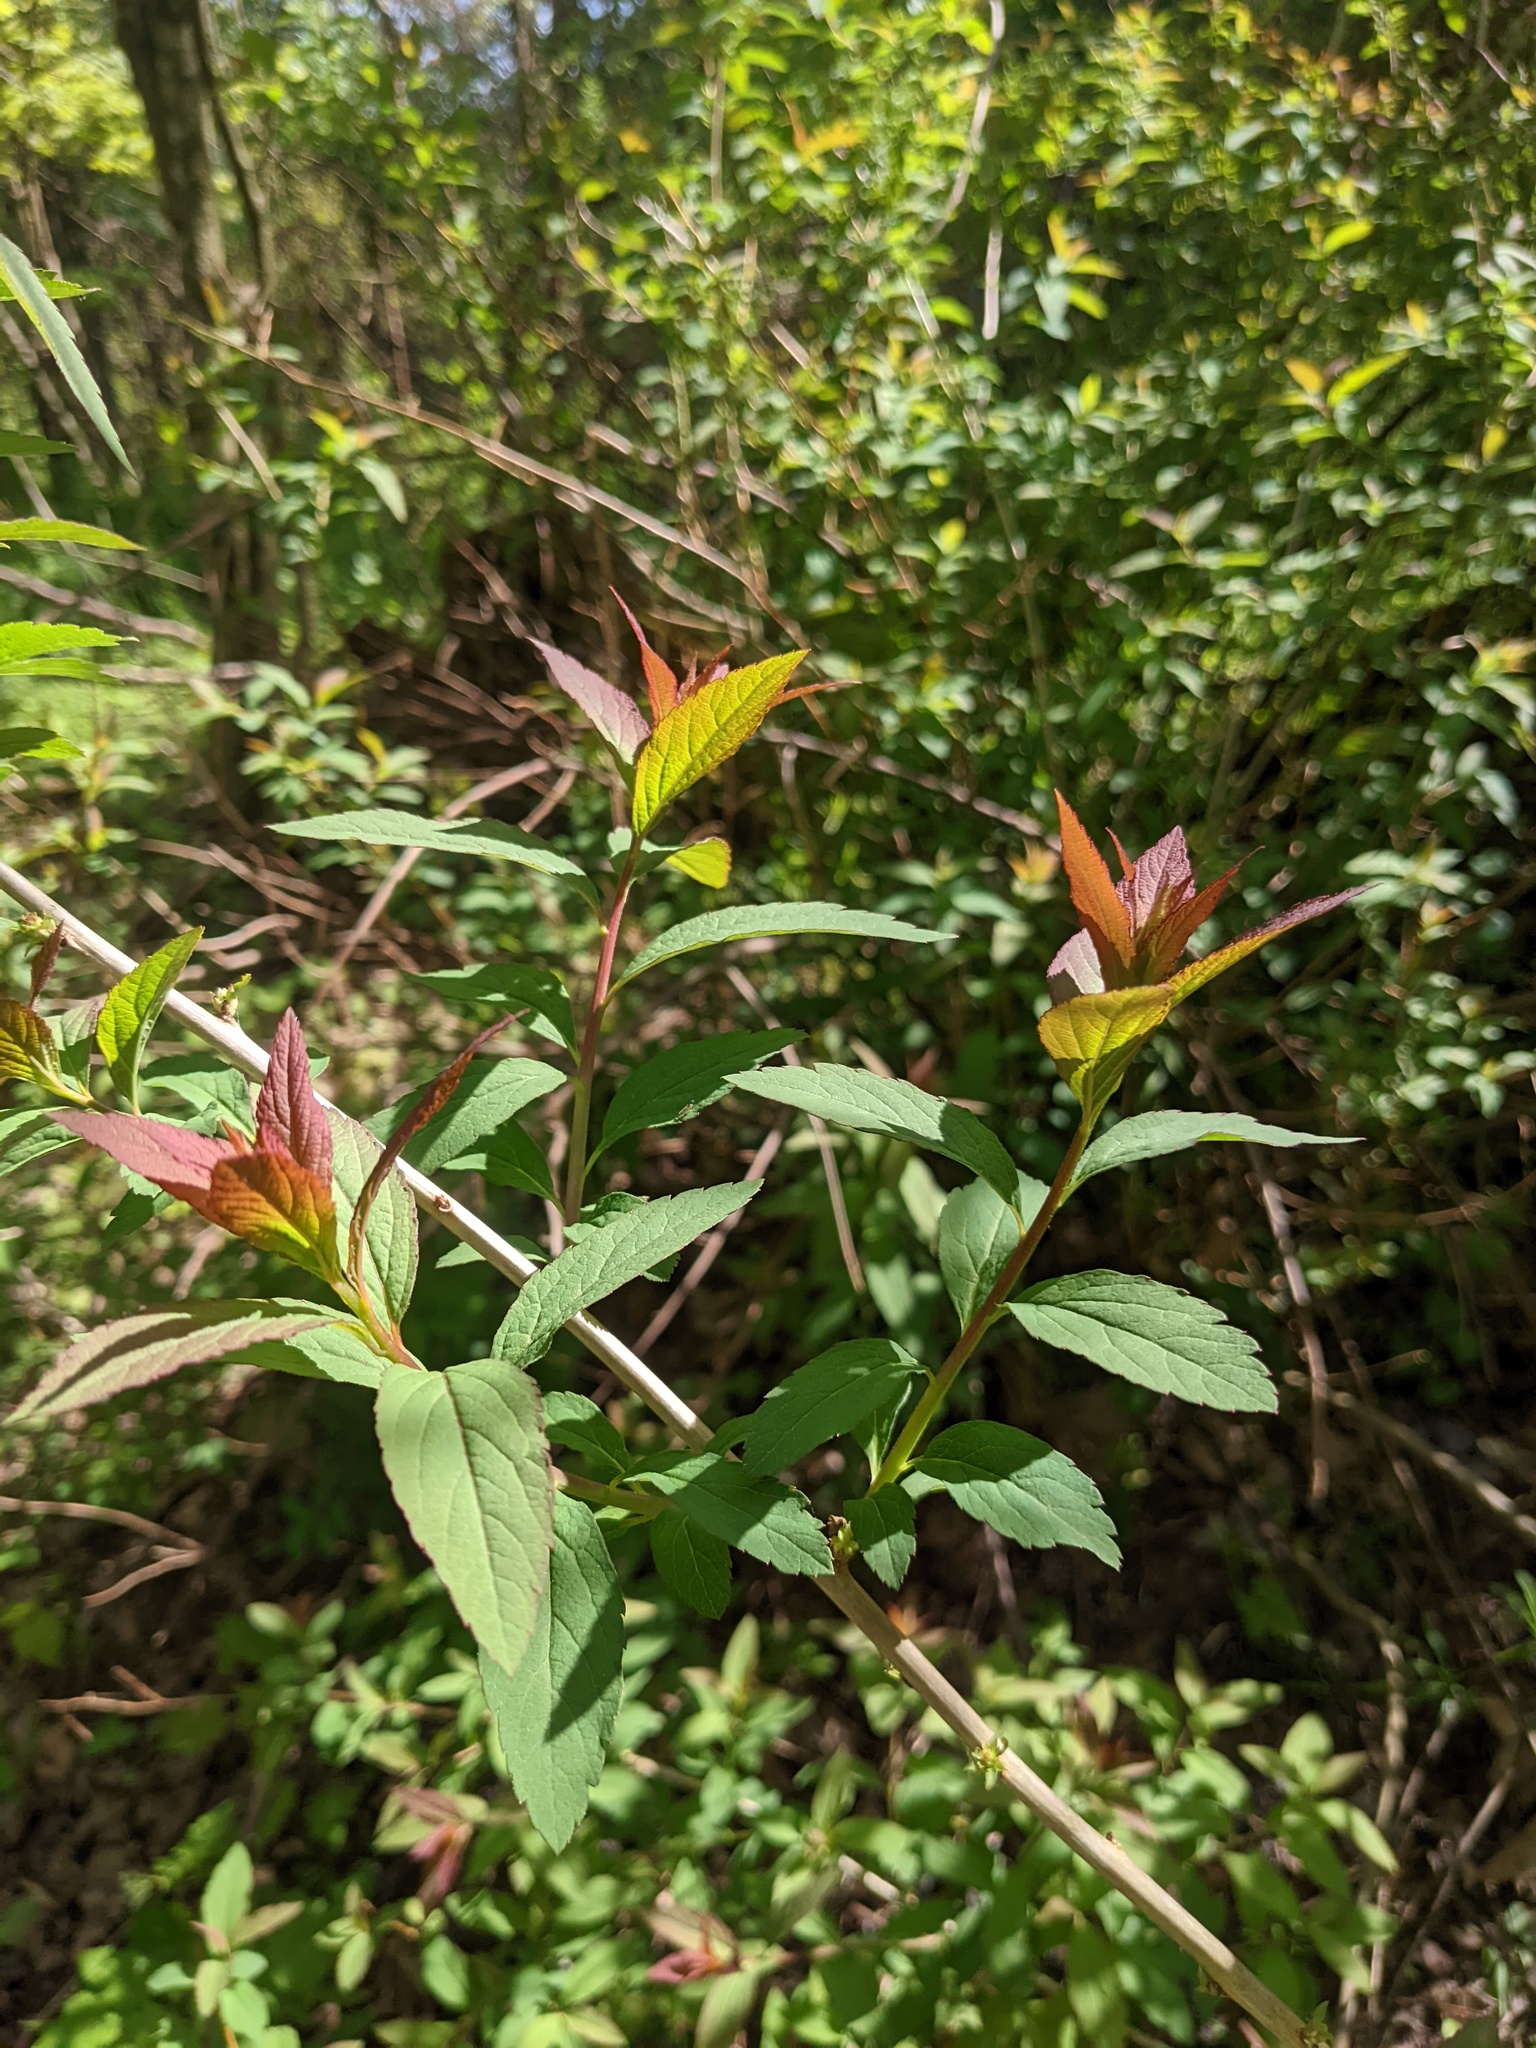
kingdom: Plantae
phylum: Tracheophyta
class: Magnoliopsida
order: Rosales
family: Rosaceae
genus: Spiraea
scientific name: Spiraea japonica
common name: Japanese spiraea
